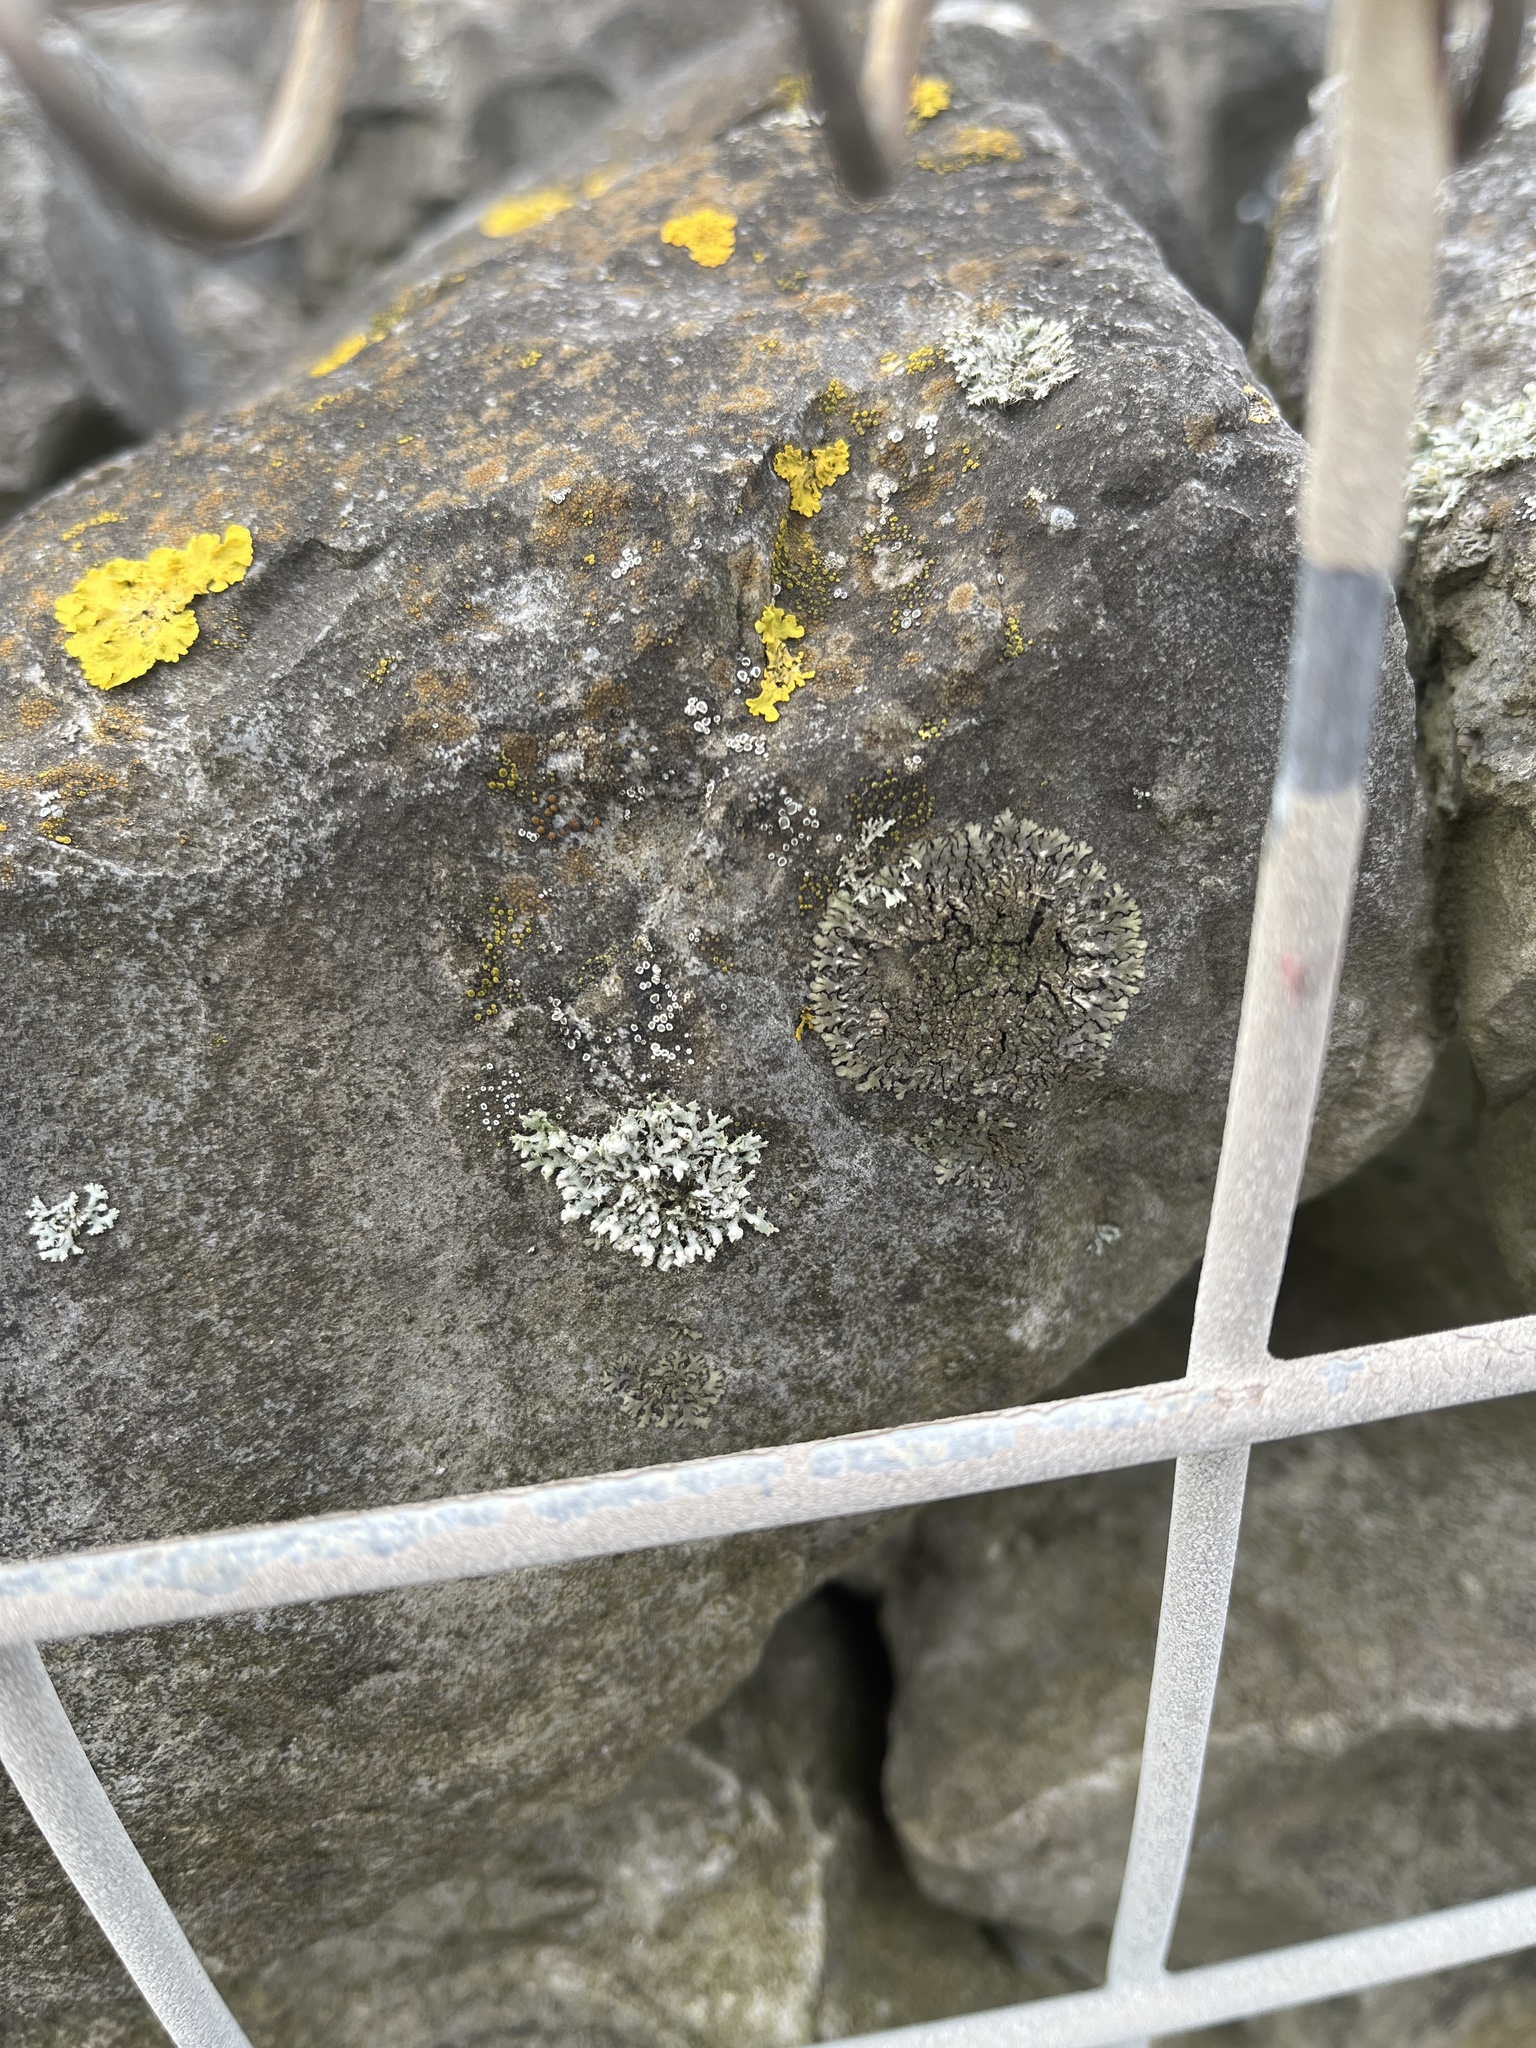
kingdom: Fungi
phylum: Ascomycota
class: Lecanoromycetes
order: Caliciales
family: Physciaceae
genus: Phaeophyscia
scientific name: Phaeophyscia orbicularis
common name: Mealy shadow lichen
